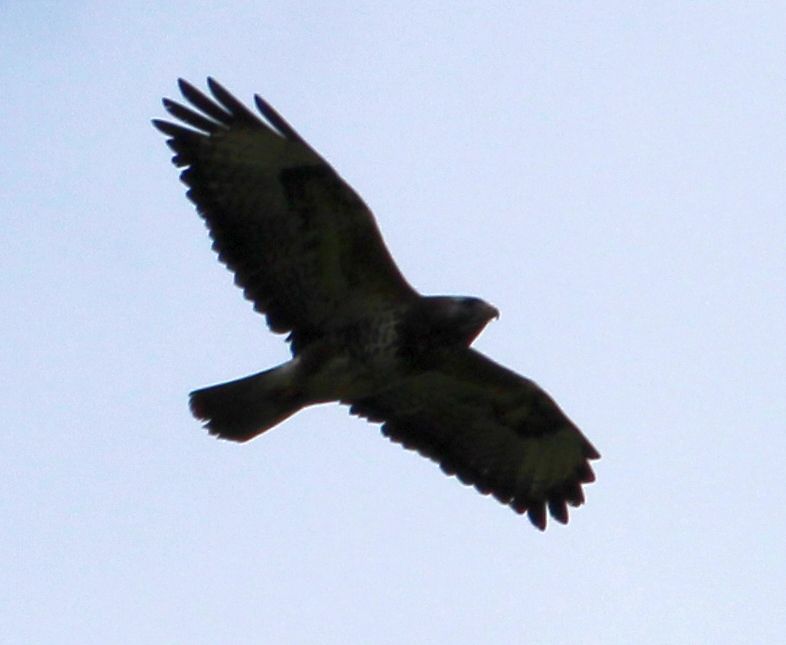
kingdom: Animalia
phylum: Chordata
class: Aves
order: Accipitriformes
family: Accipitridae
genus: Buteo
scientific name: Buteo buteo
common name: Common buzzard
